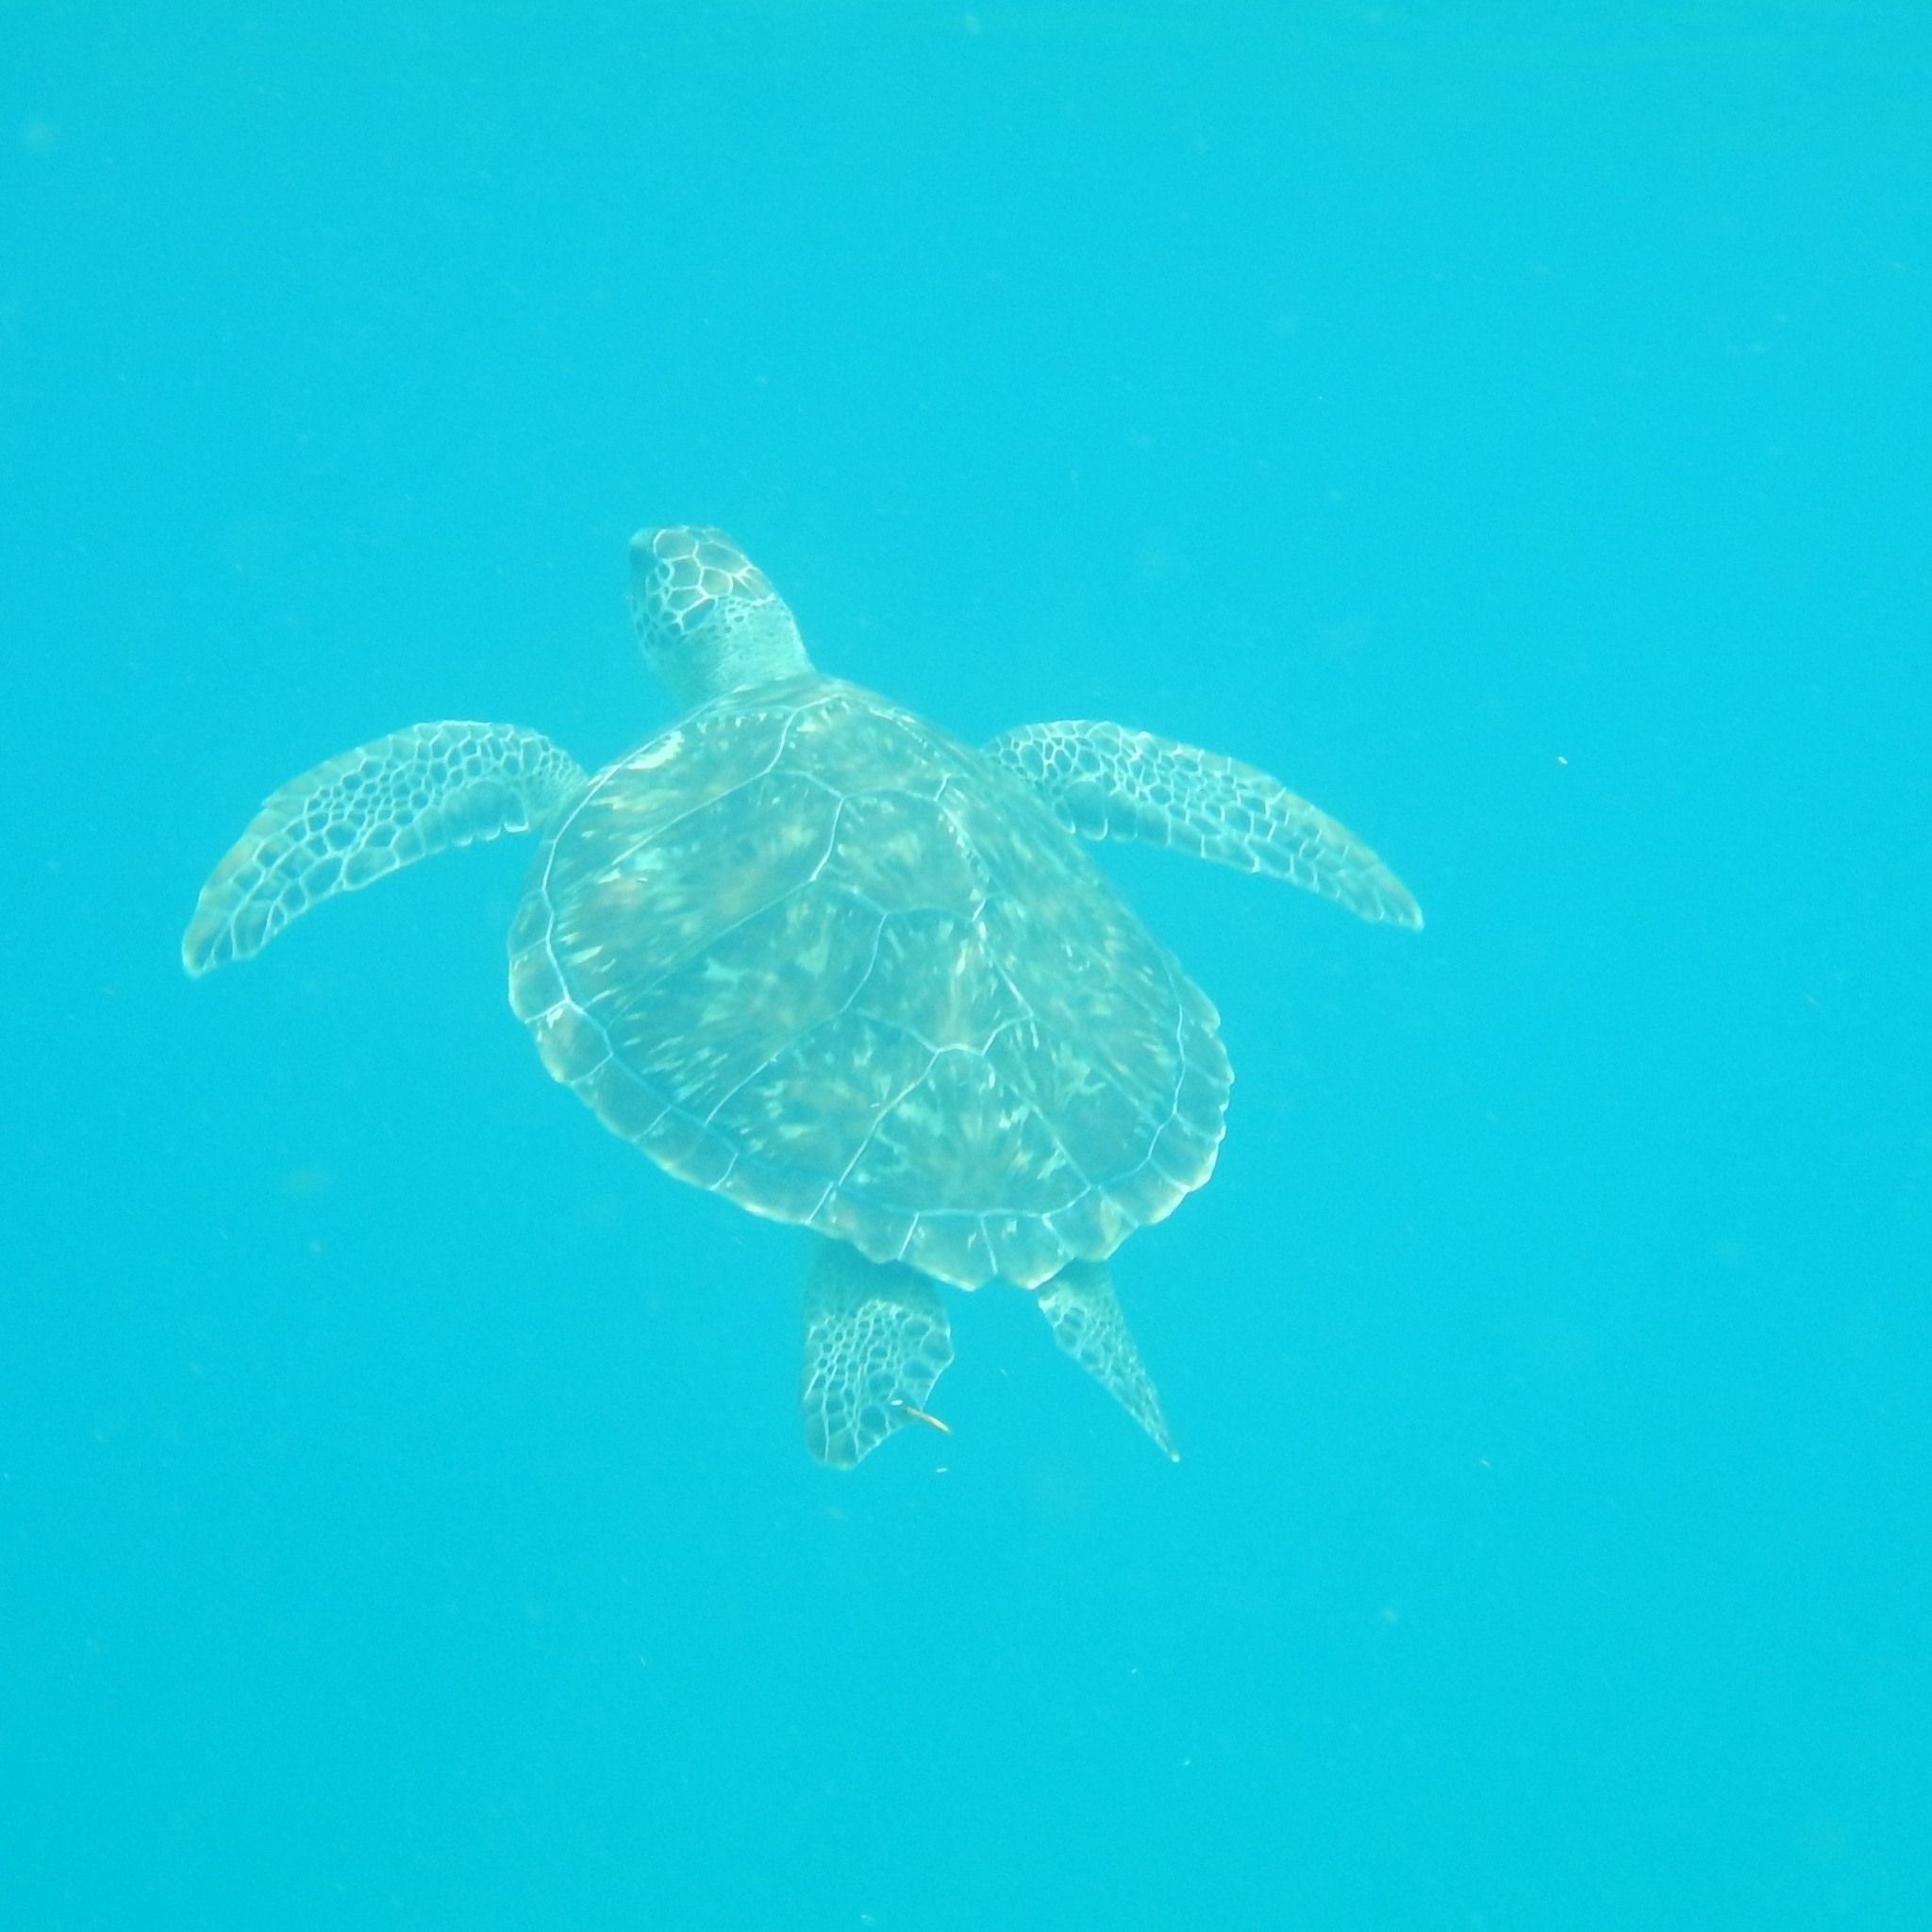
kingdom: Animalia
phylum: Chordata
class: Testudines
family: Cheloniidae
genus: Chelonia
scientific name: Chelonia mydas
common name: Green turtle
